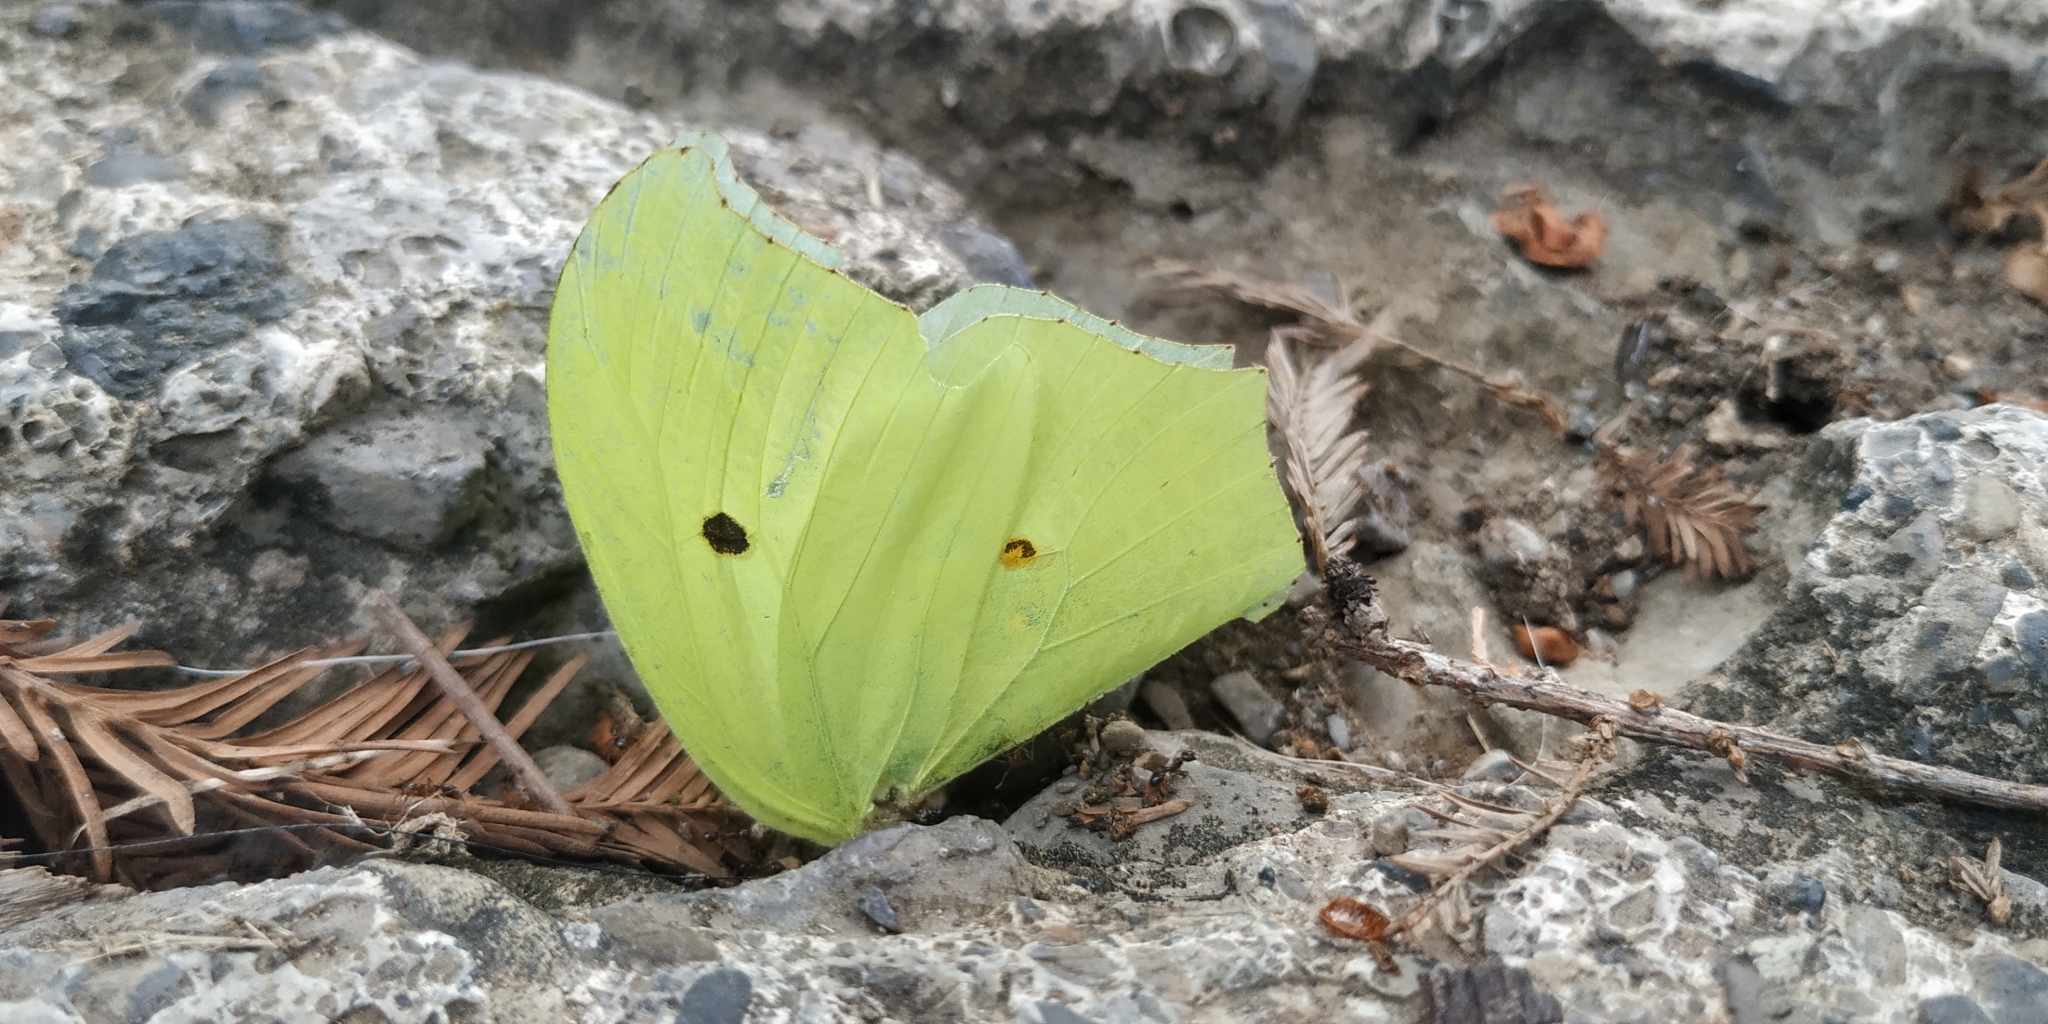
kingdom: Animalia
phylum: Arthropoda
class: Insecta
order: Lepidoptera
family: Pieridae
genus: Anteos
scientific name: Anteos maerula
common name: Angled sulphur
